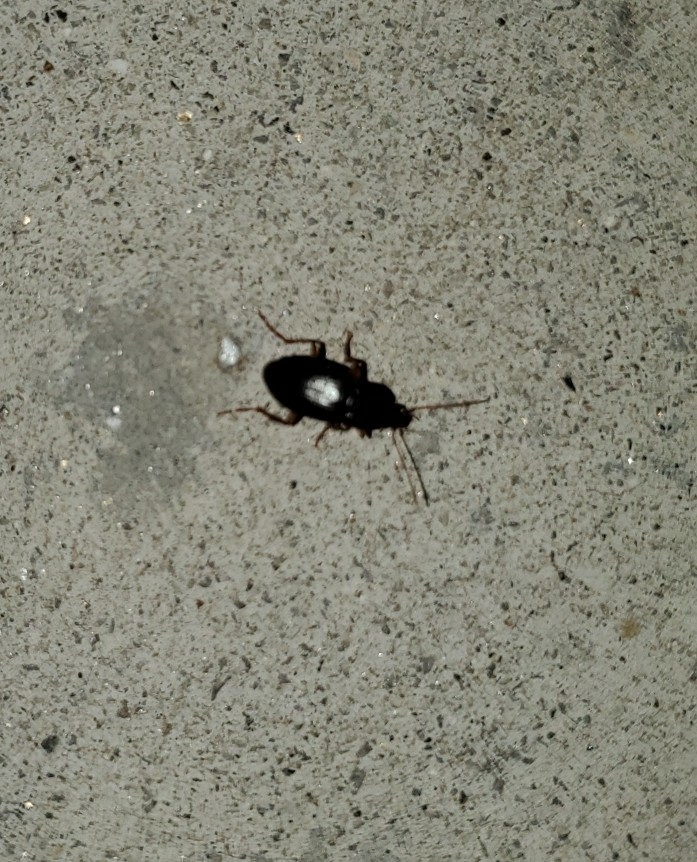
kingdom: Animalia
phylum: Arthropoda
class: Insecta
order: Coleoptera
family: Carabidae
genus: Calathus
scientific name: Calathus ruficollis
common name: Red-collared harp ground beetle
